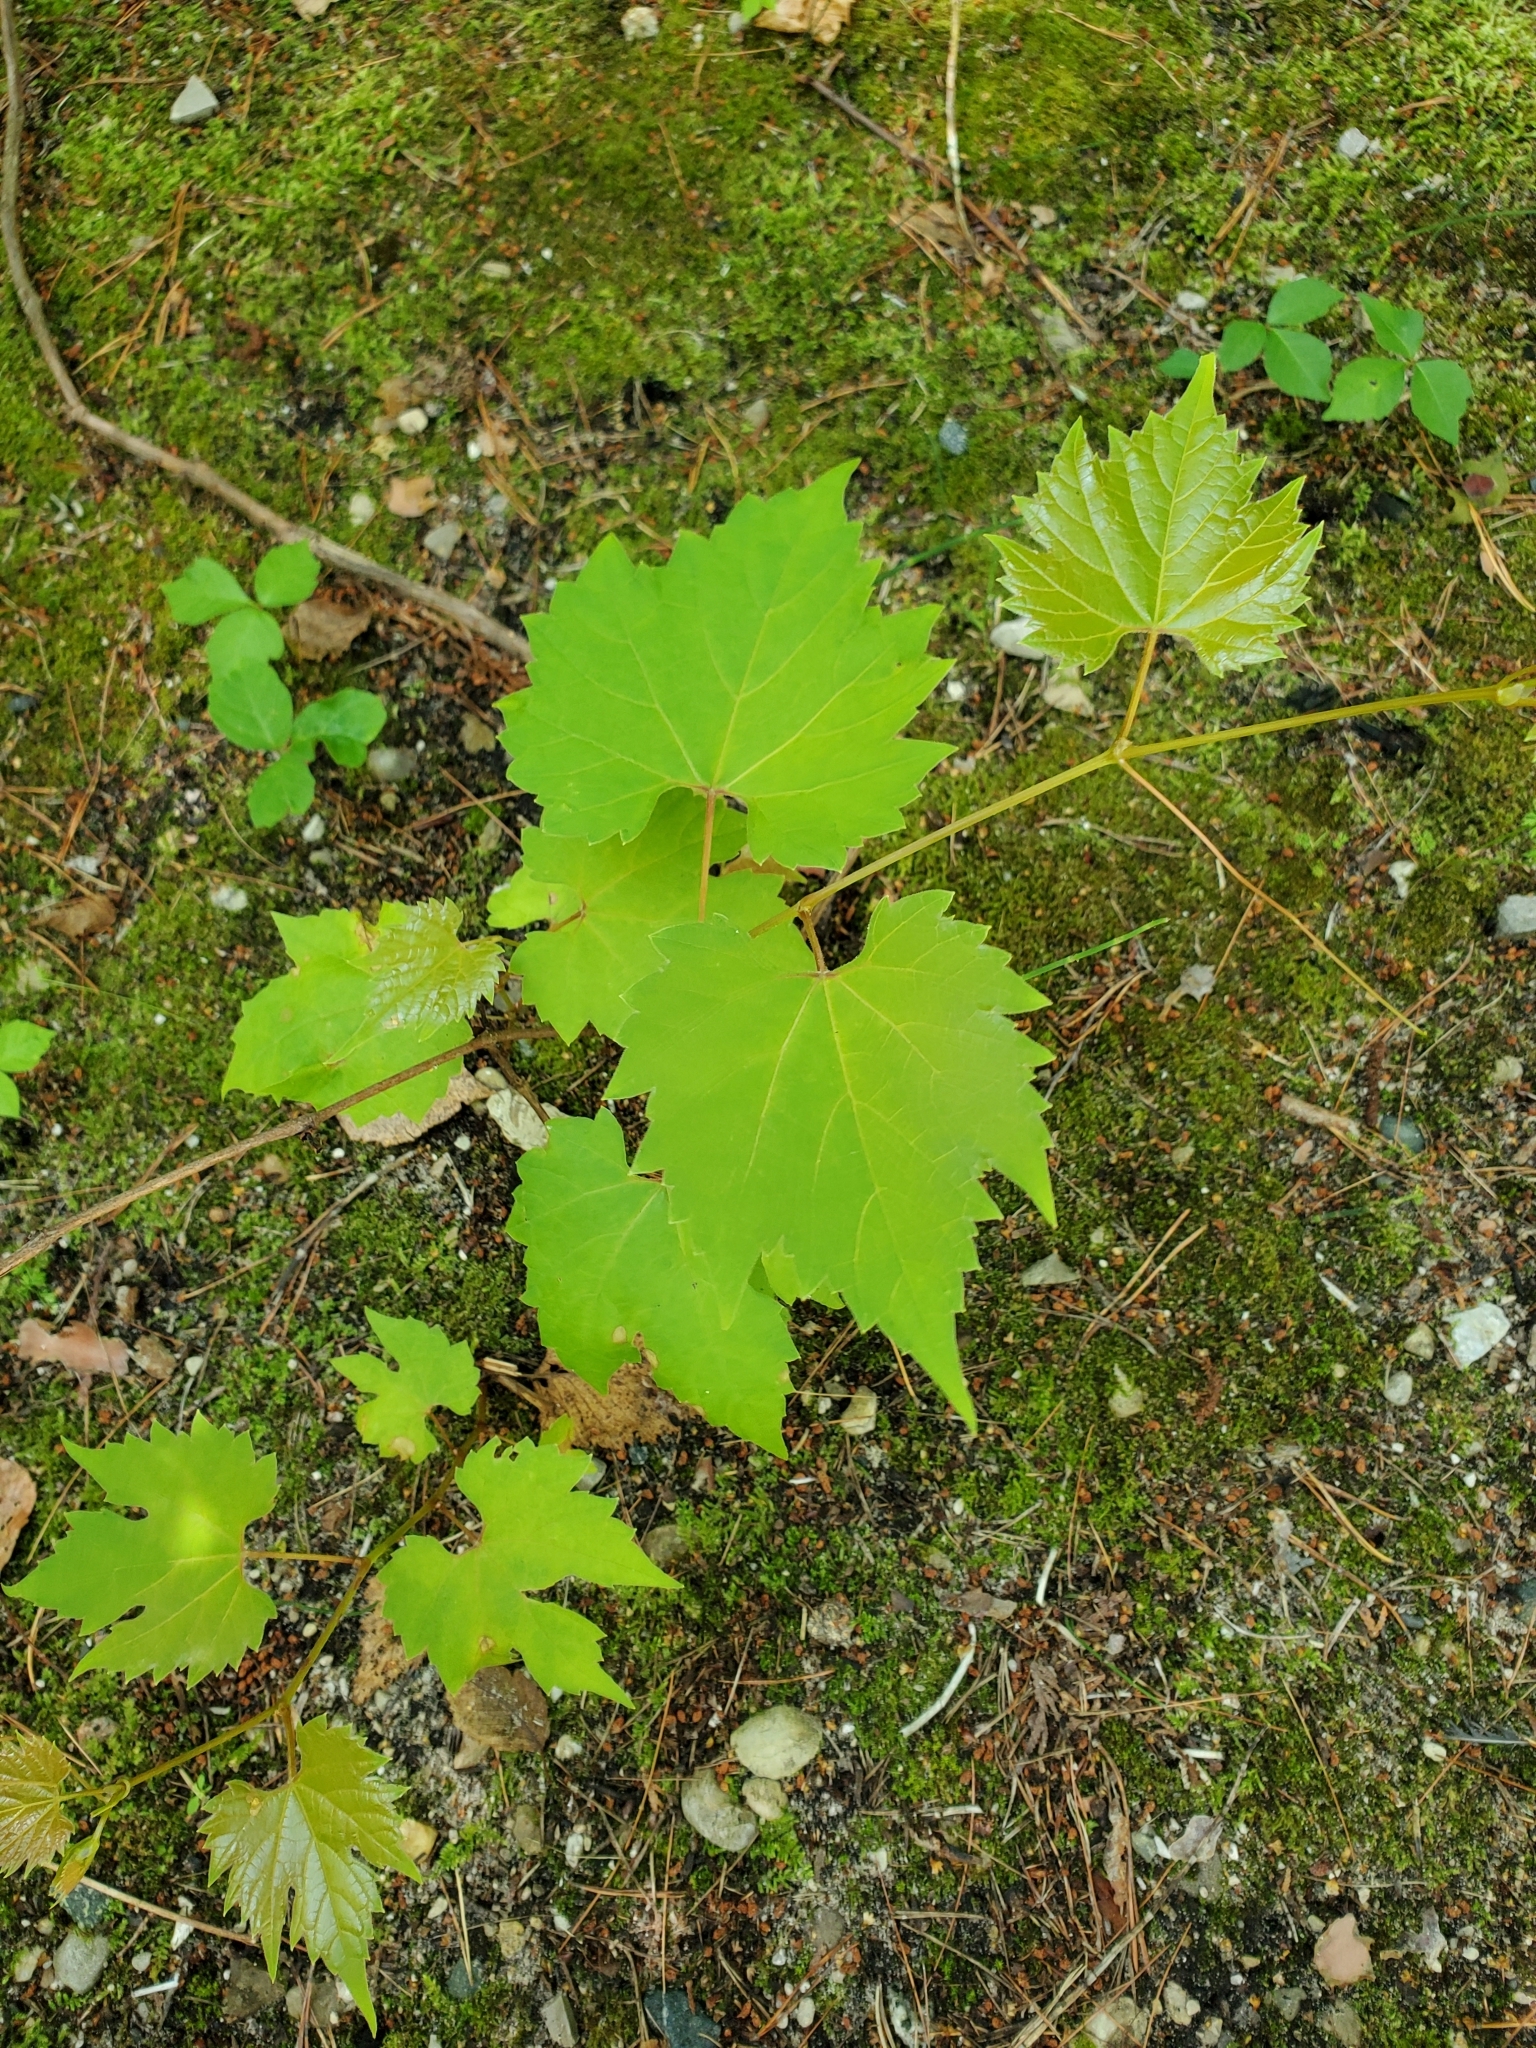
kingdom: Plantae
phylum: Tracheophyta
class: Magnoliopsida
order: Vitales
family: Vitaceae
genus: Vitis
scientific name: Vitis riparia
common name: Frost grape
